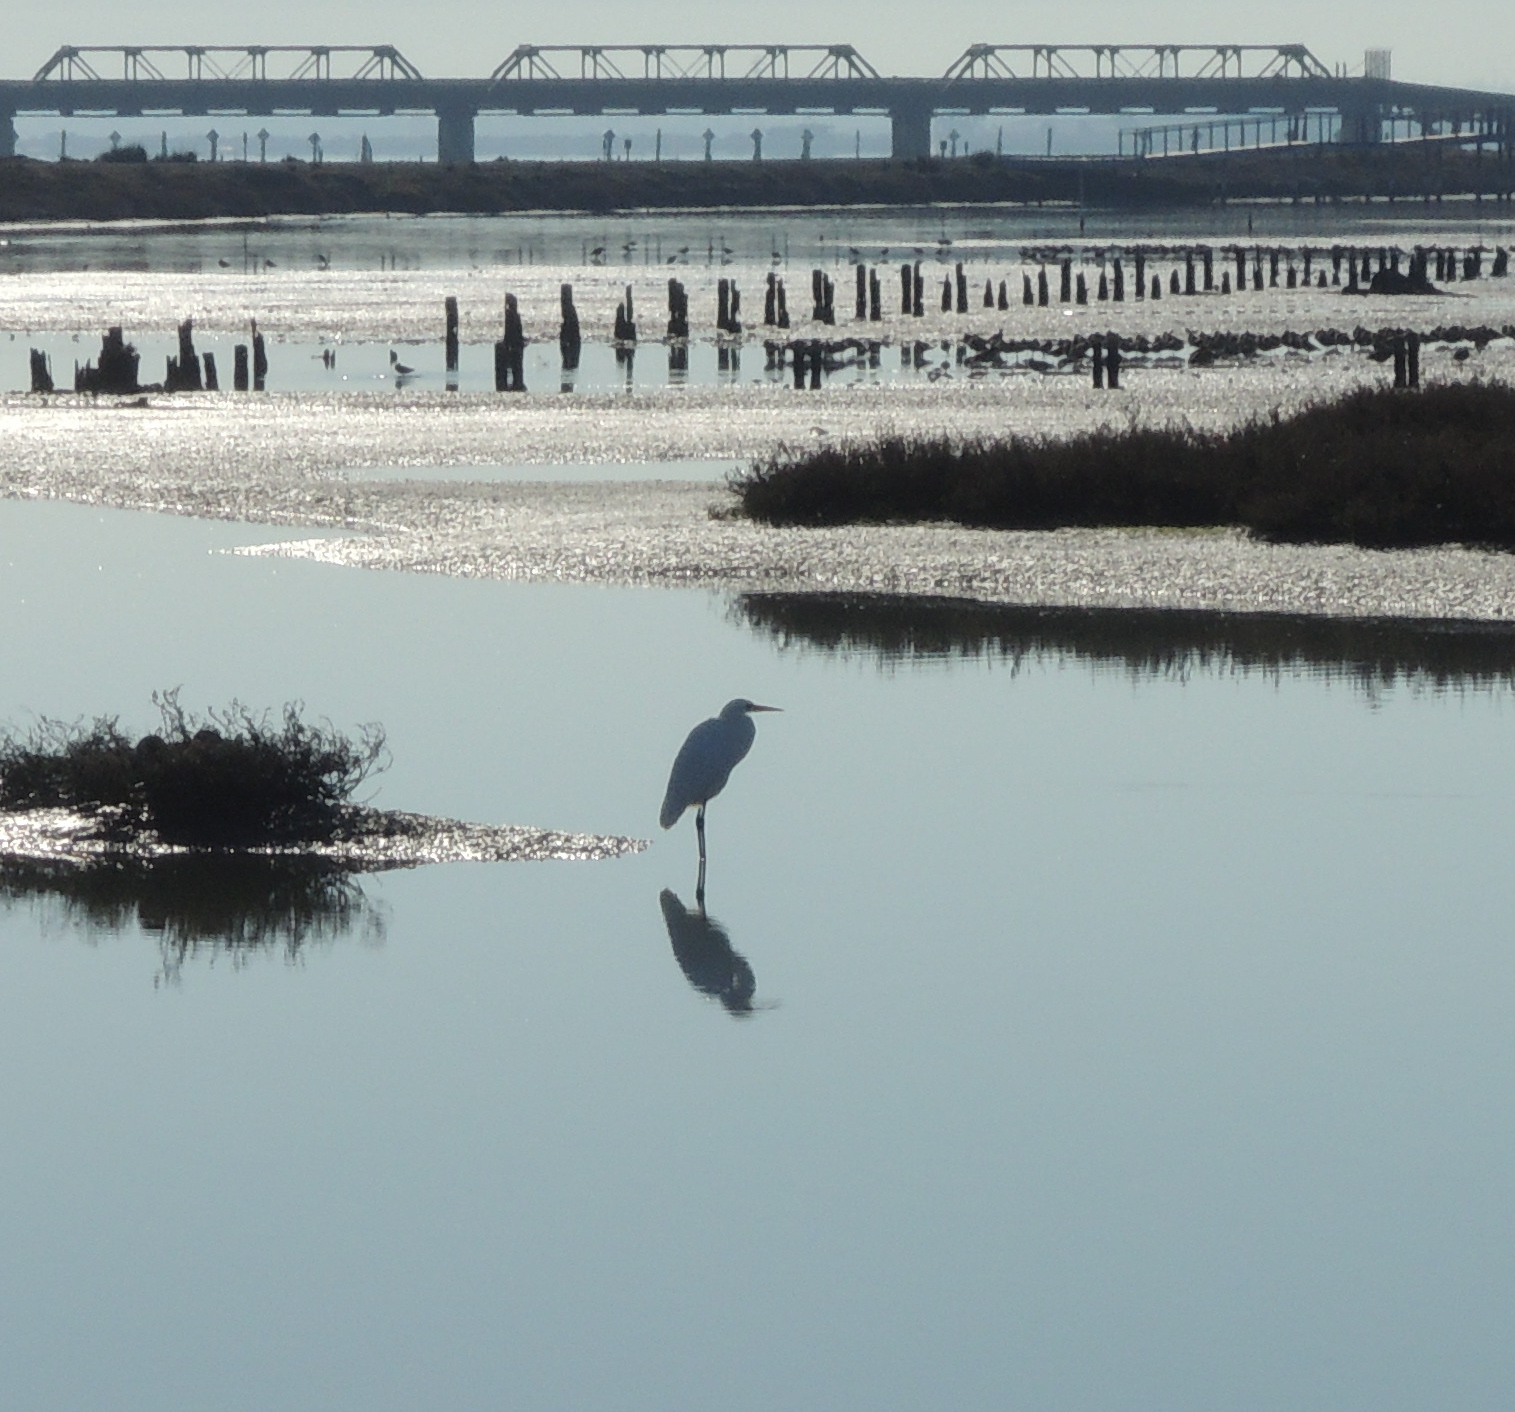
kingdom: Animalia
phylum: Chordata
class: Aves
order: Pelecaniformes
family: Ardeidae
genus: Ardea
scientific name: Ardea alba
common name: Great egret
